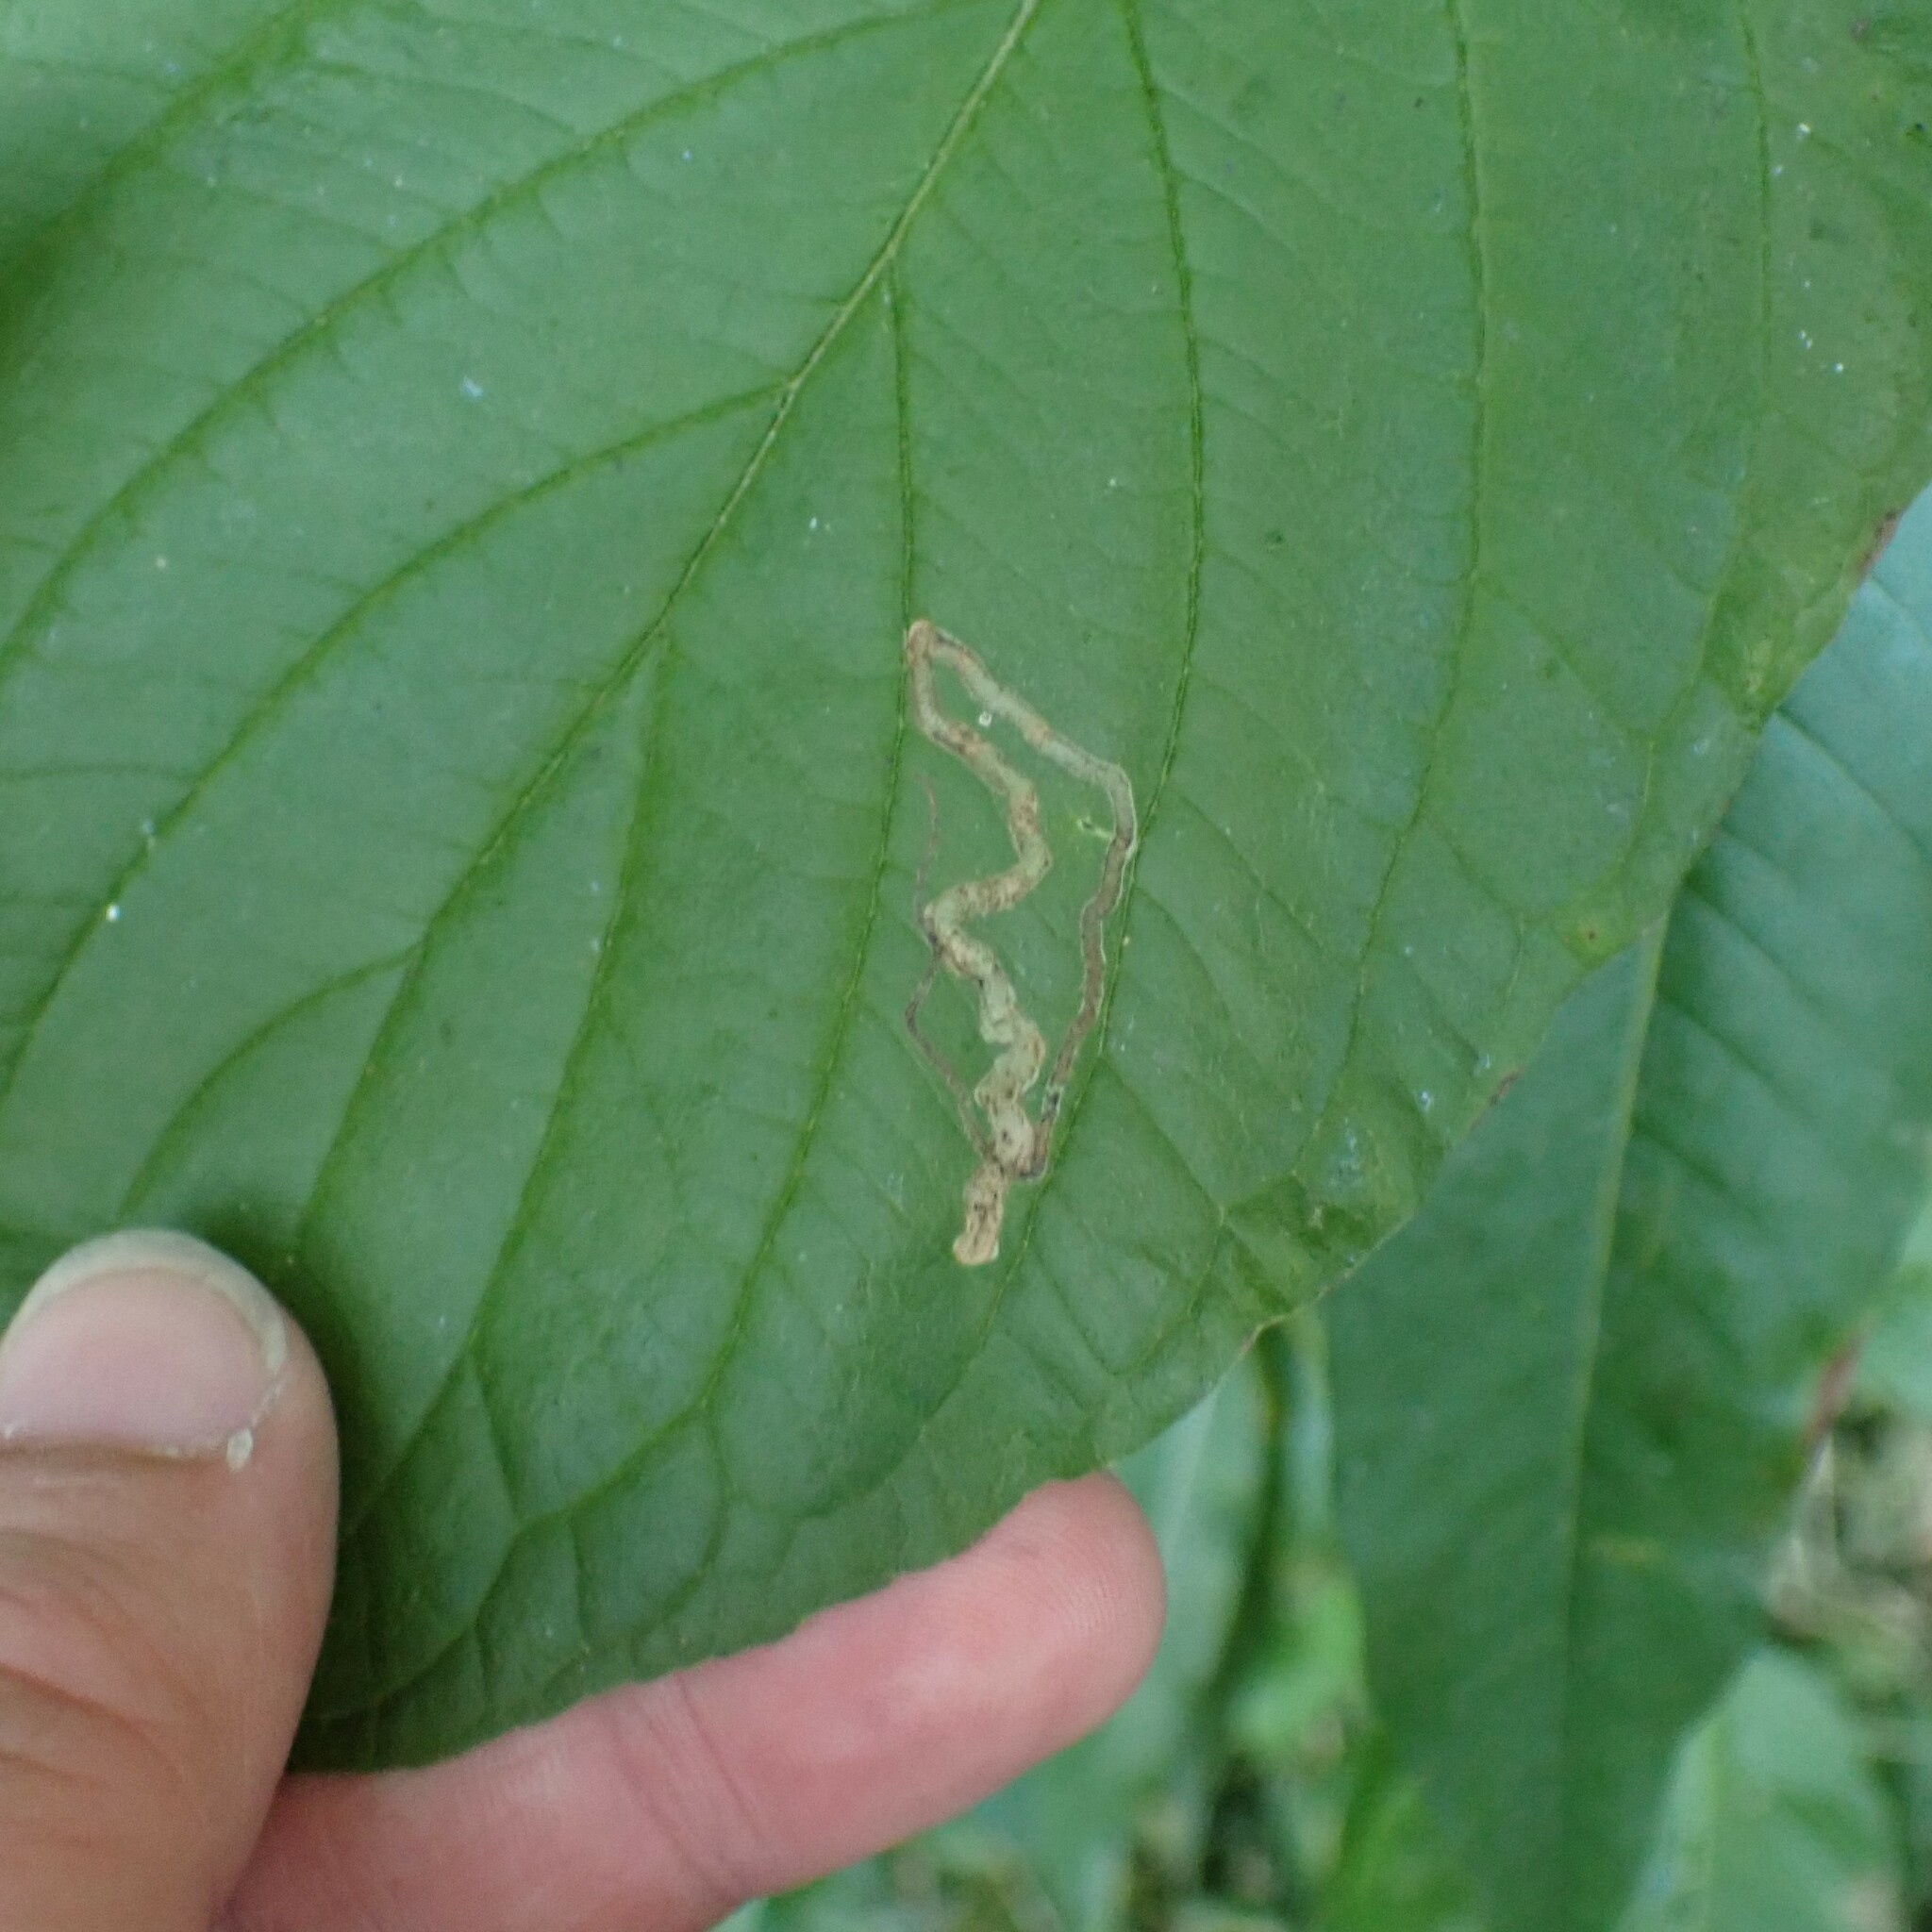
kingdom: Animalia
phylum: Arthropoda
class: Insecta
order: Diptera
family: Agromyzidae
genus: Phytomyza
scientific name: Phytomyza agromyzina
